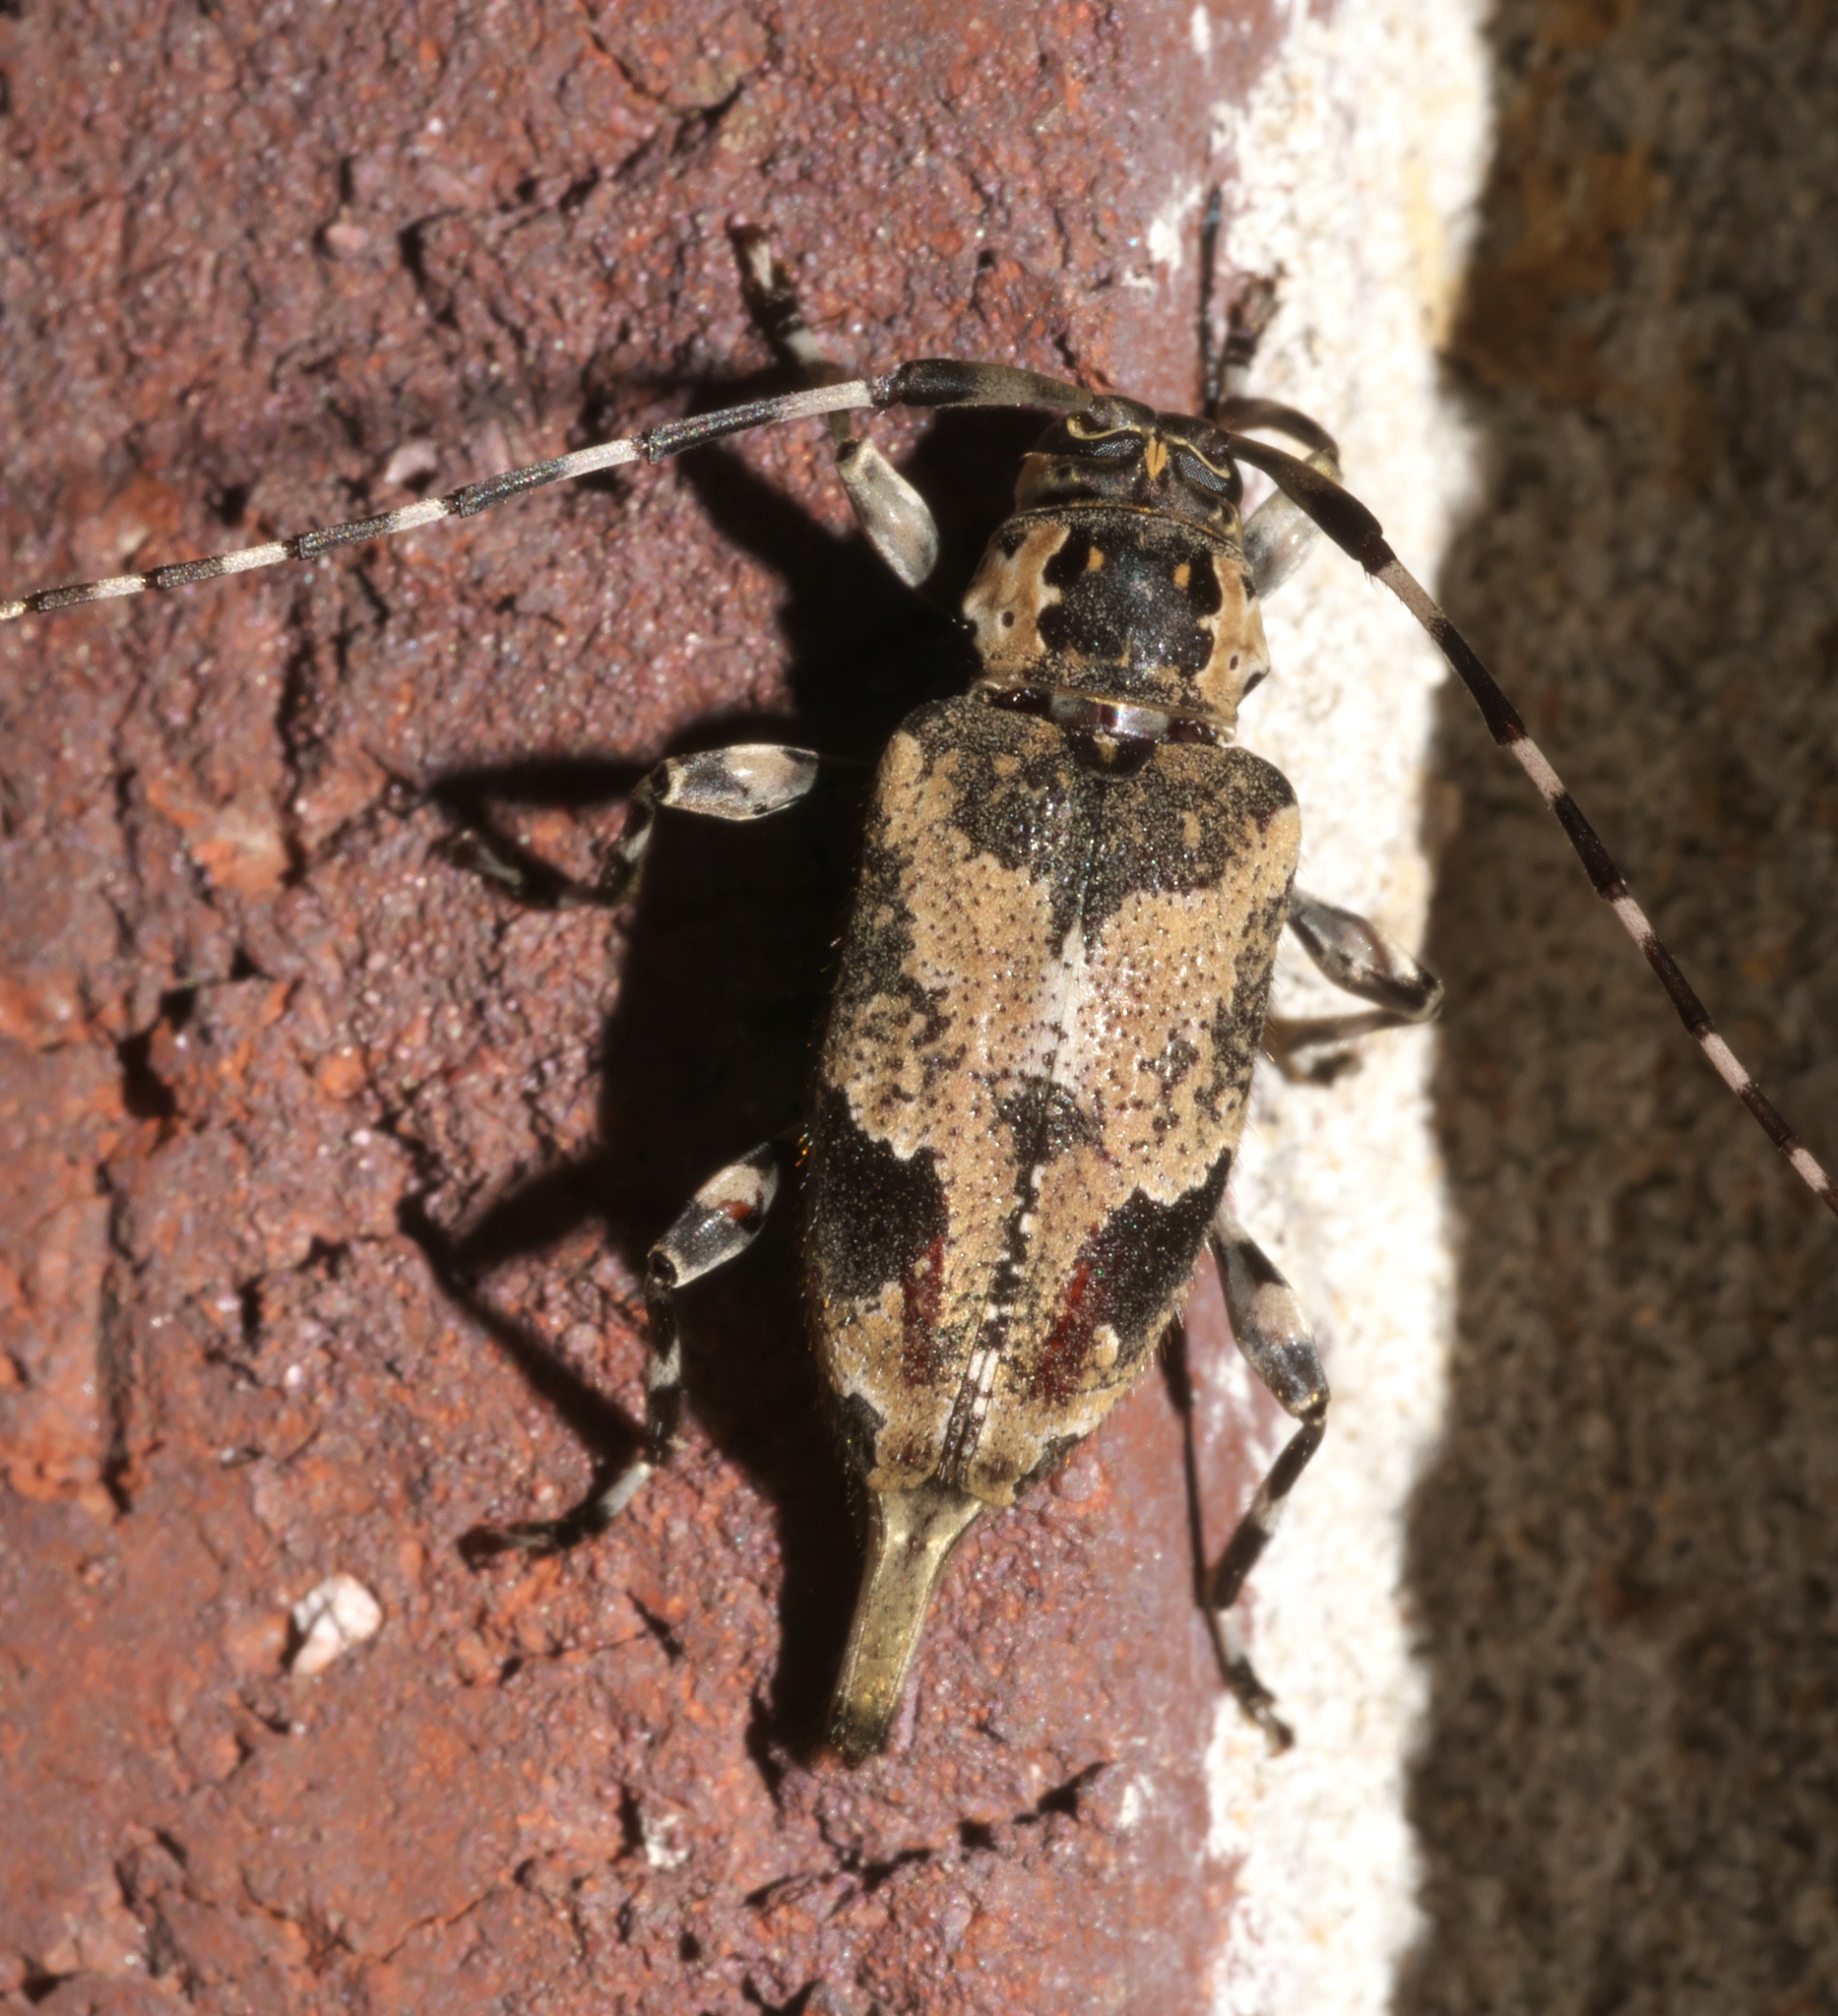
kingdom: Animalia
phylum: Arthropoda
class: Insecta
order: Coleoptera
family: Cerambycidae
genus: Graphisurus
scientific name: Graphisurus triangulifer
